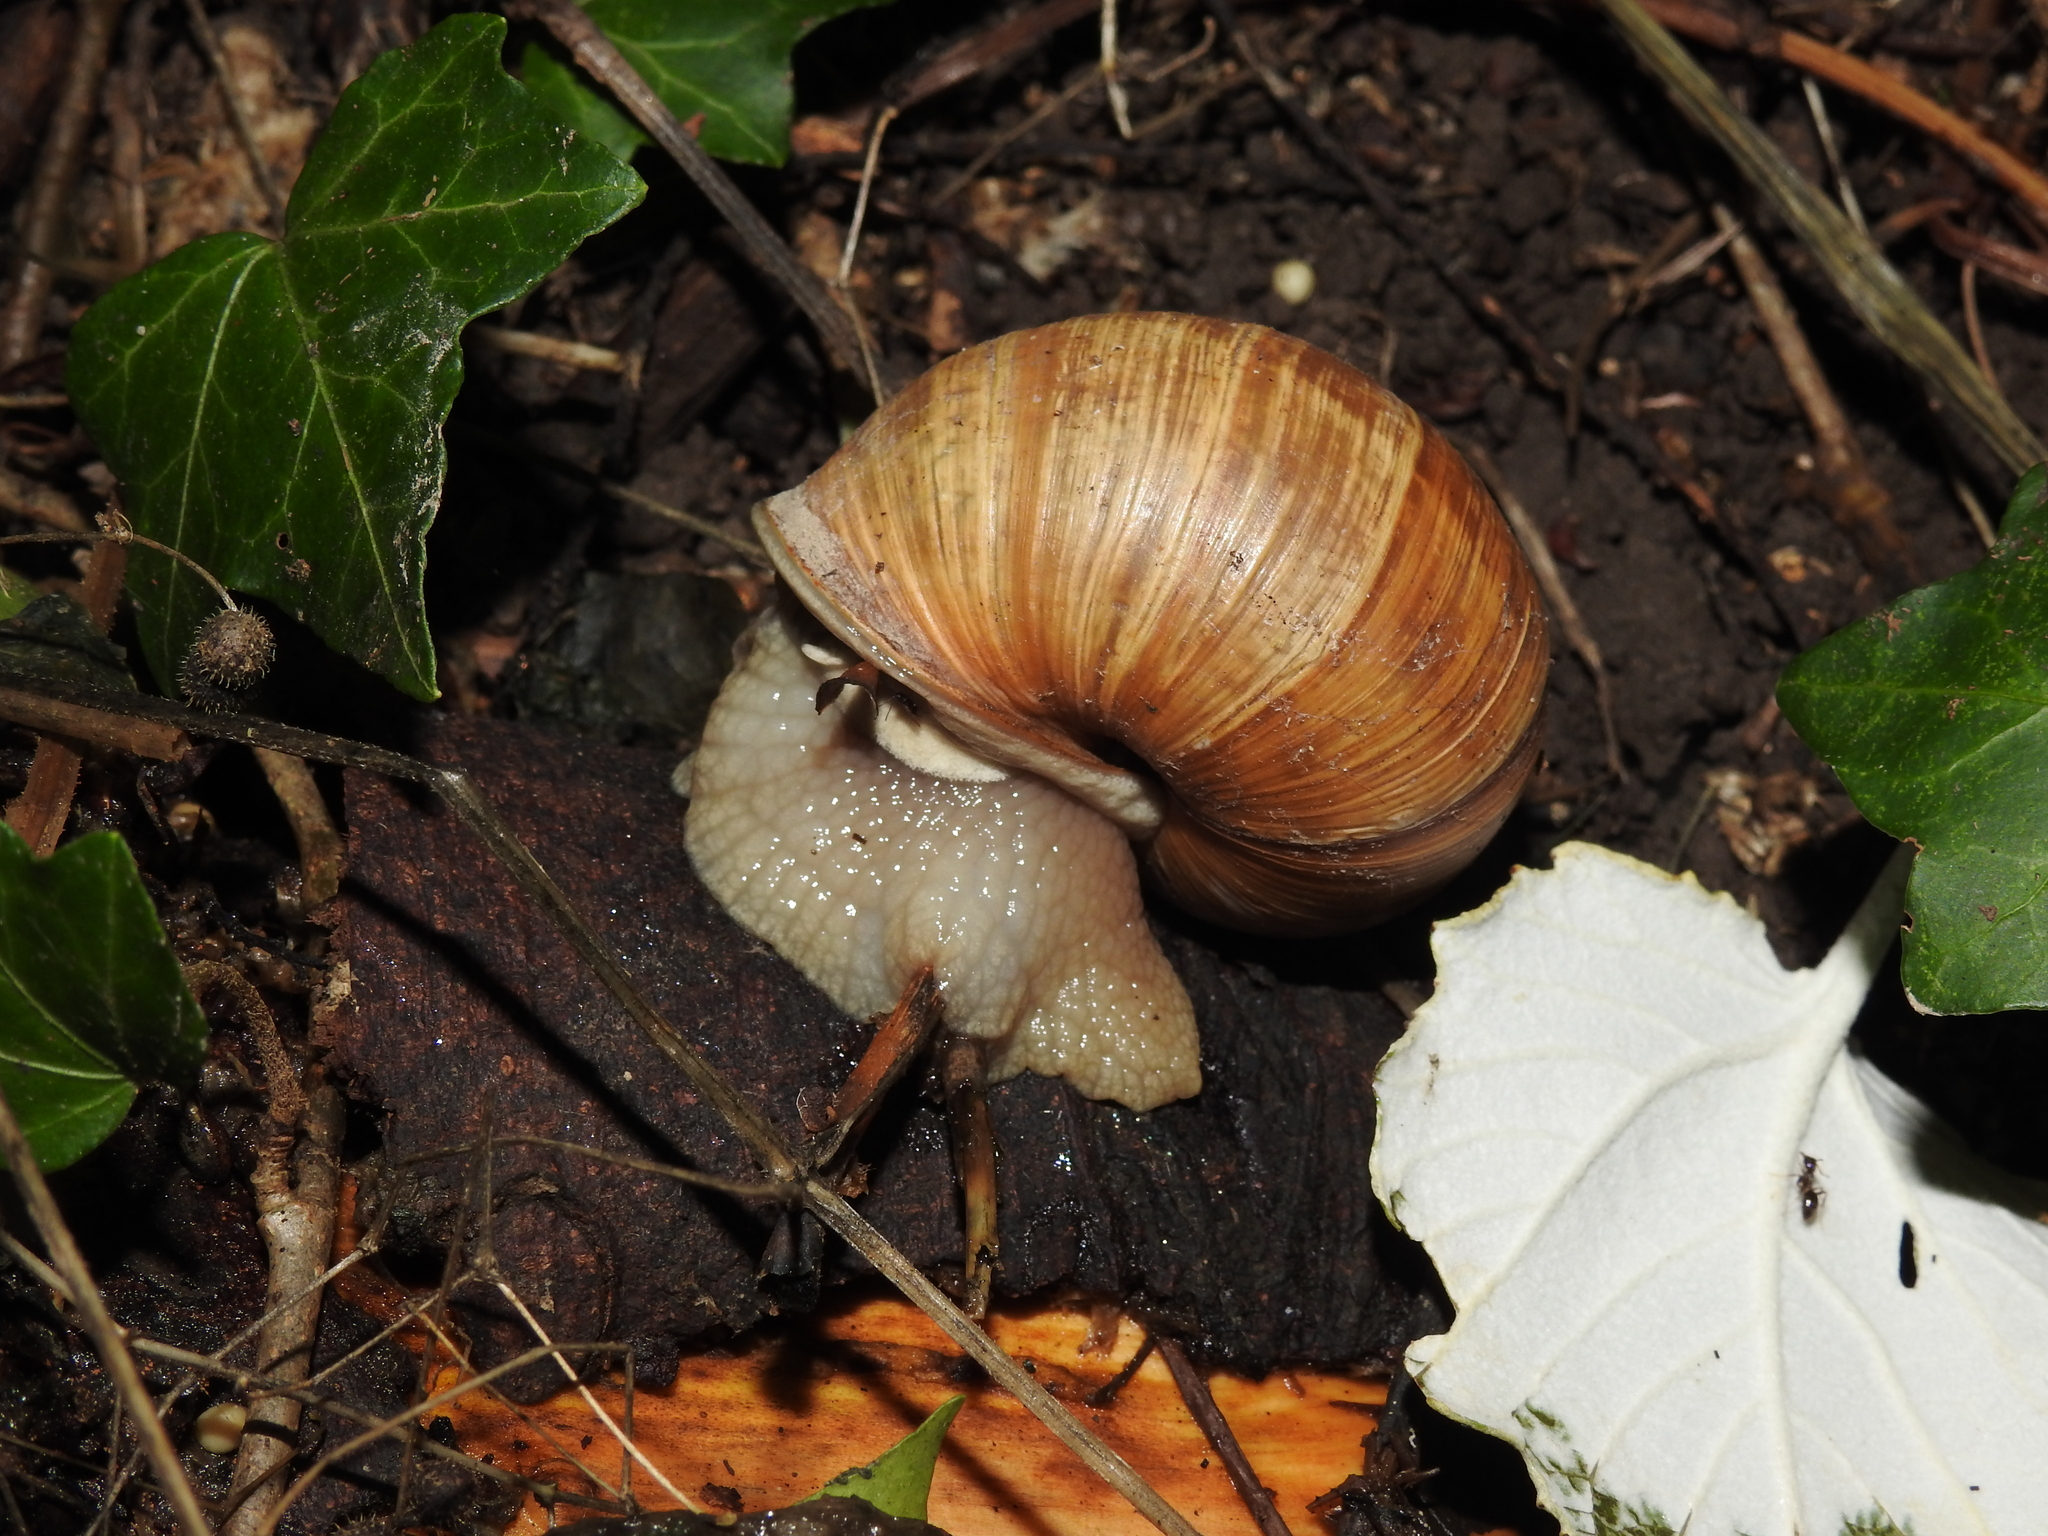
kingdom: Animalia
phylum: Mollusca
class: Gastropoda
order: Stylommatophora
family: Helicidae
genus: Helix
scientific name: Helix pomatia
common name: Roman snail
